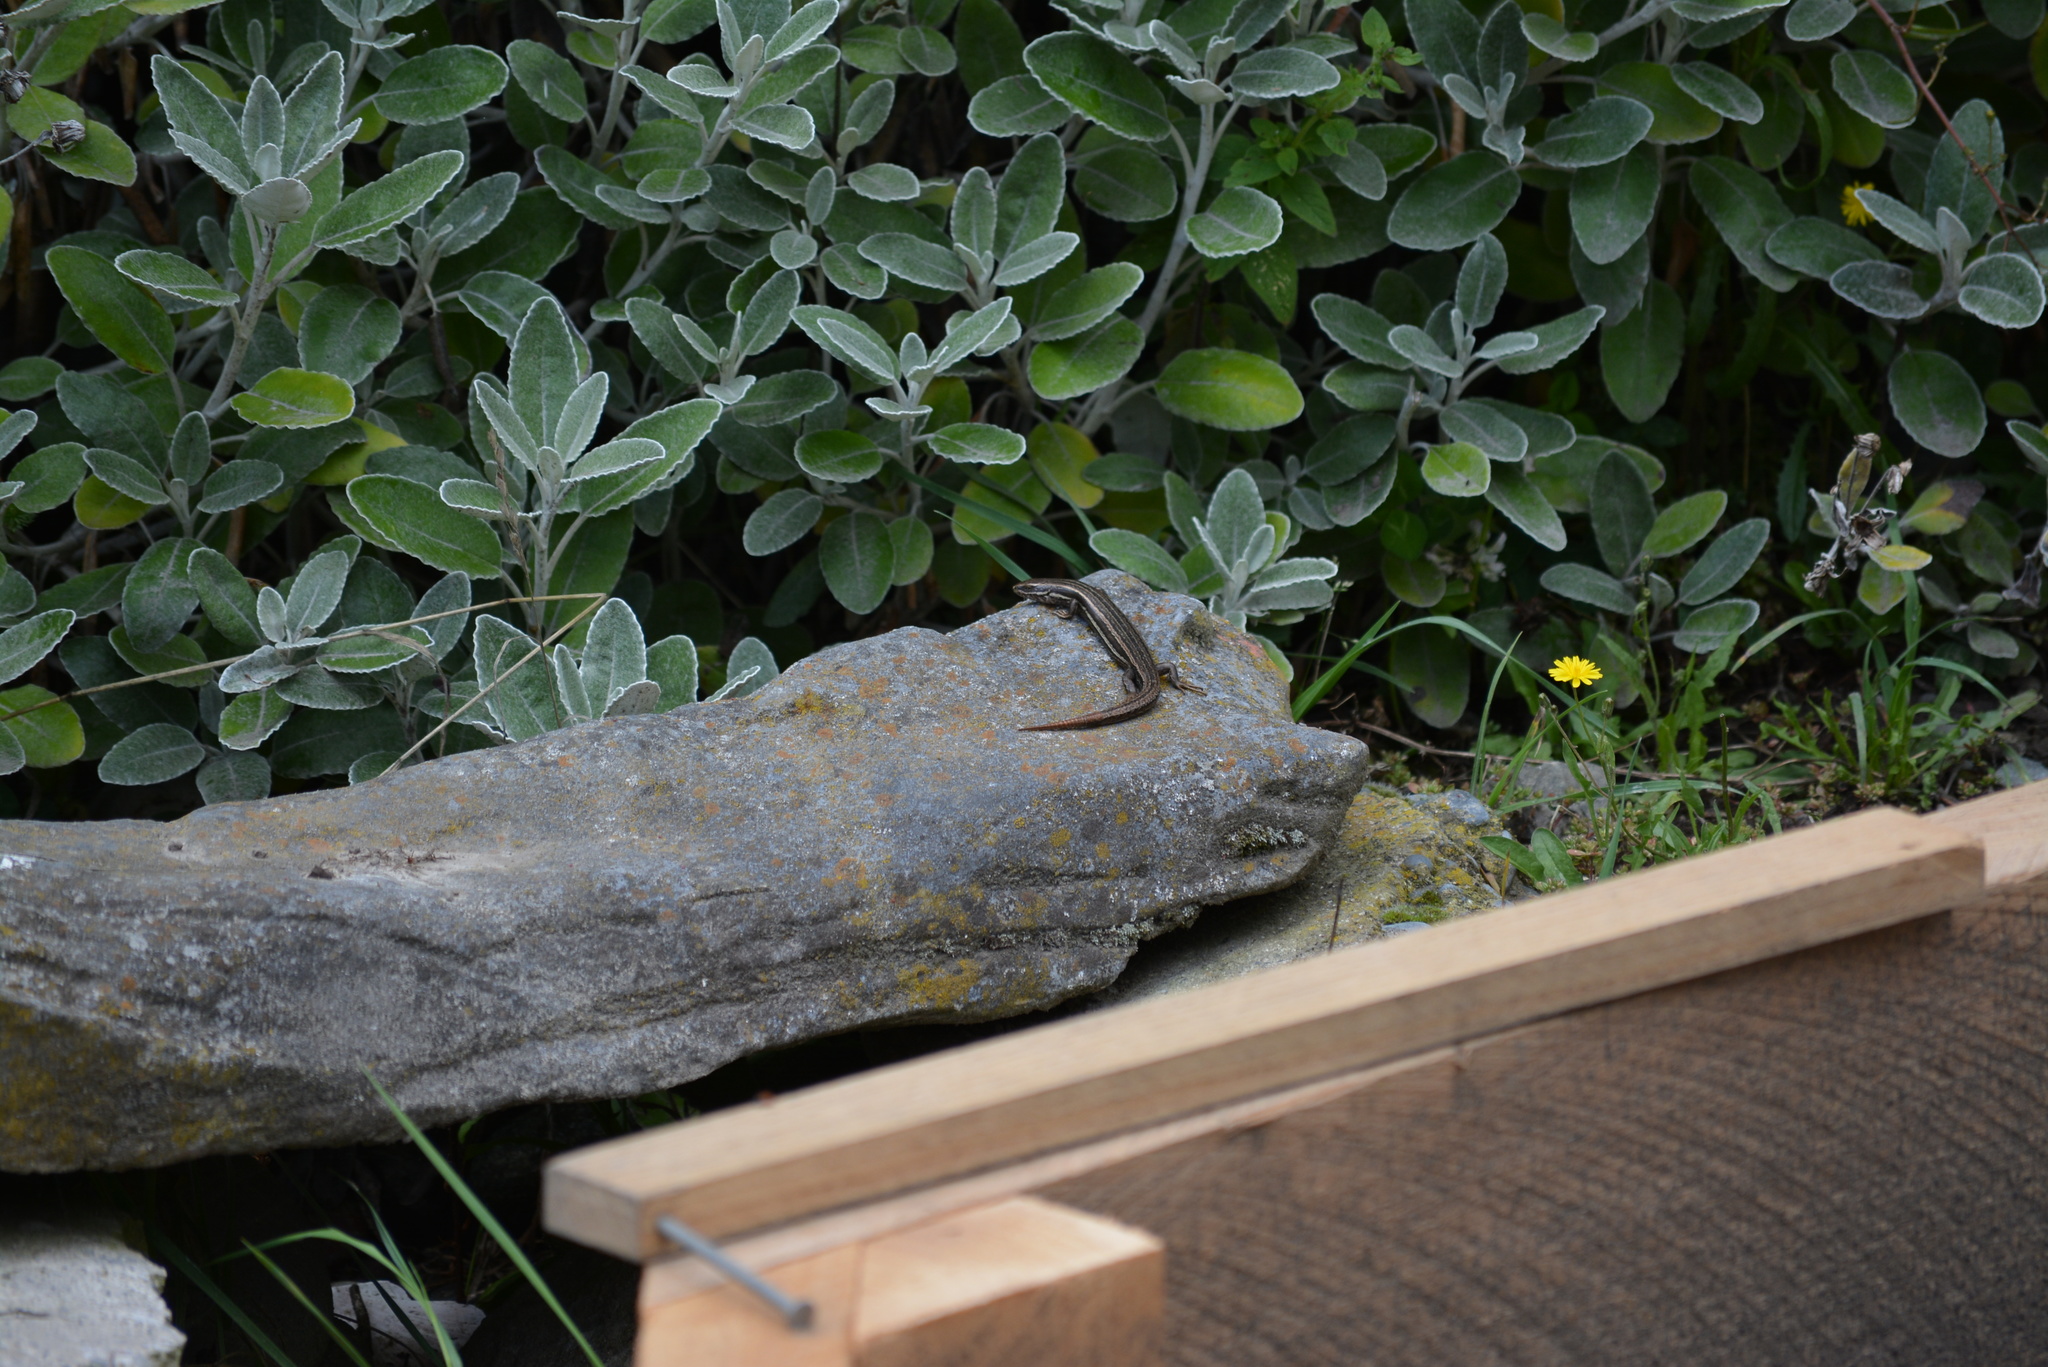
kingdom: Animalia
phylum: Chordata
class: Squamata
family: Scincidae
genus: Oligosoma
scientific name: Oligosoma polychroma
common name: Common new zealand skink
